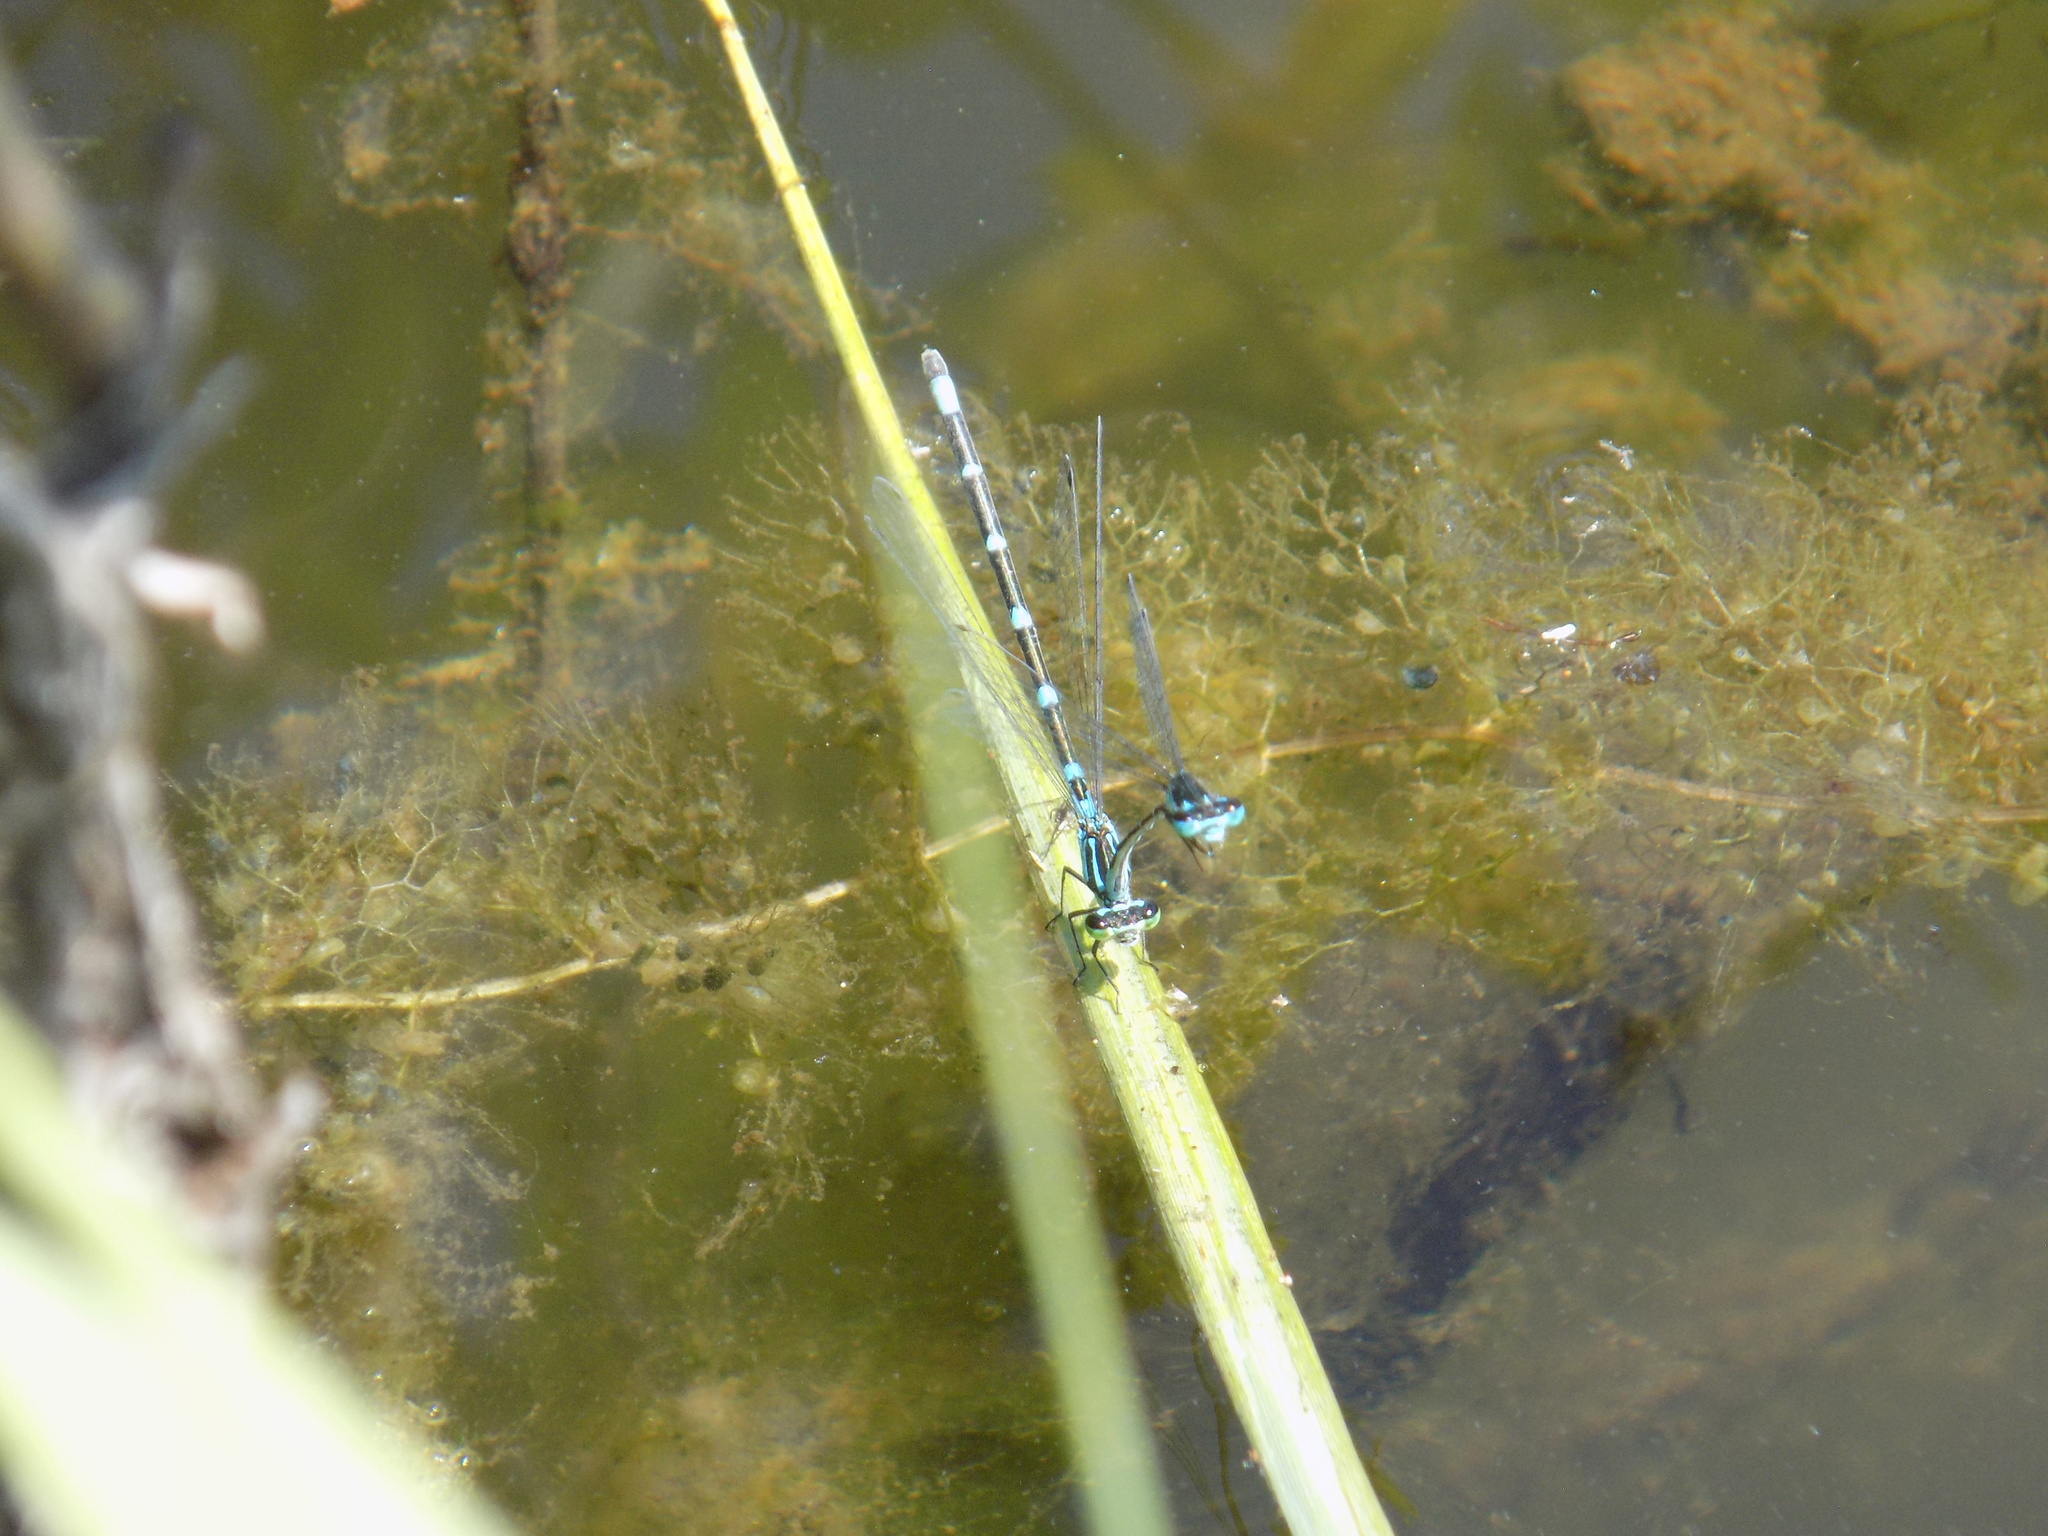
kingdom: Animalia
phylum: Arthropoda
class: Insecta
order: Odonata
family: Coenagrionidae
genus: Coenagrion
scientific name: Coenagrion pulchellum
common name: Variable bluet
